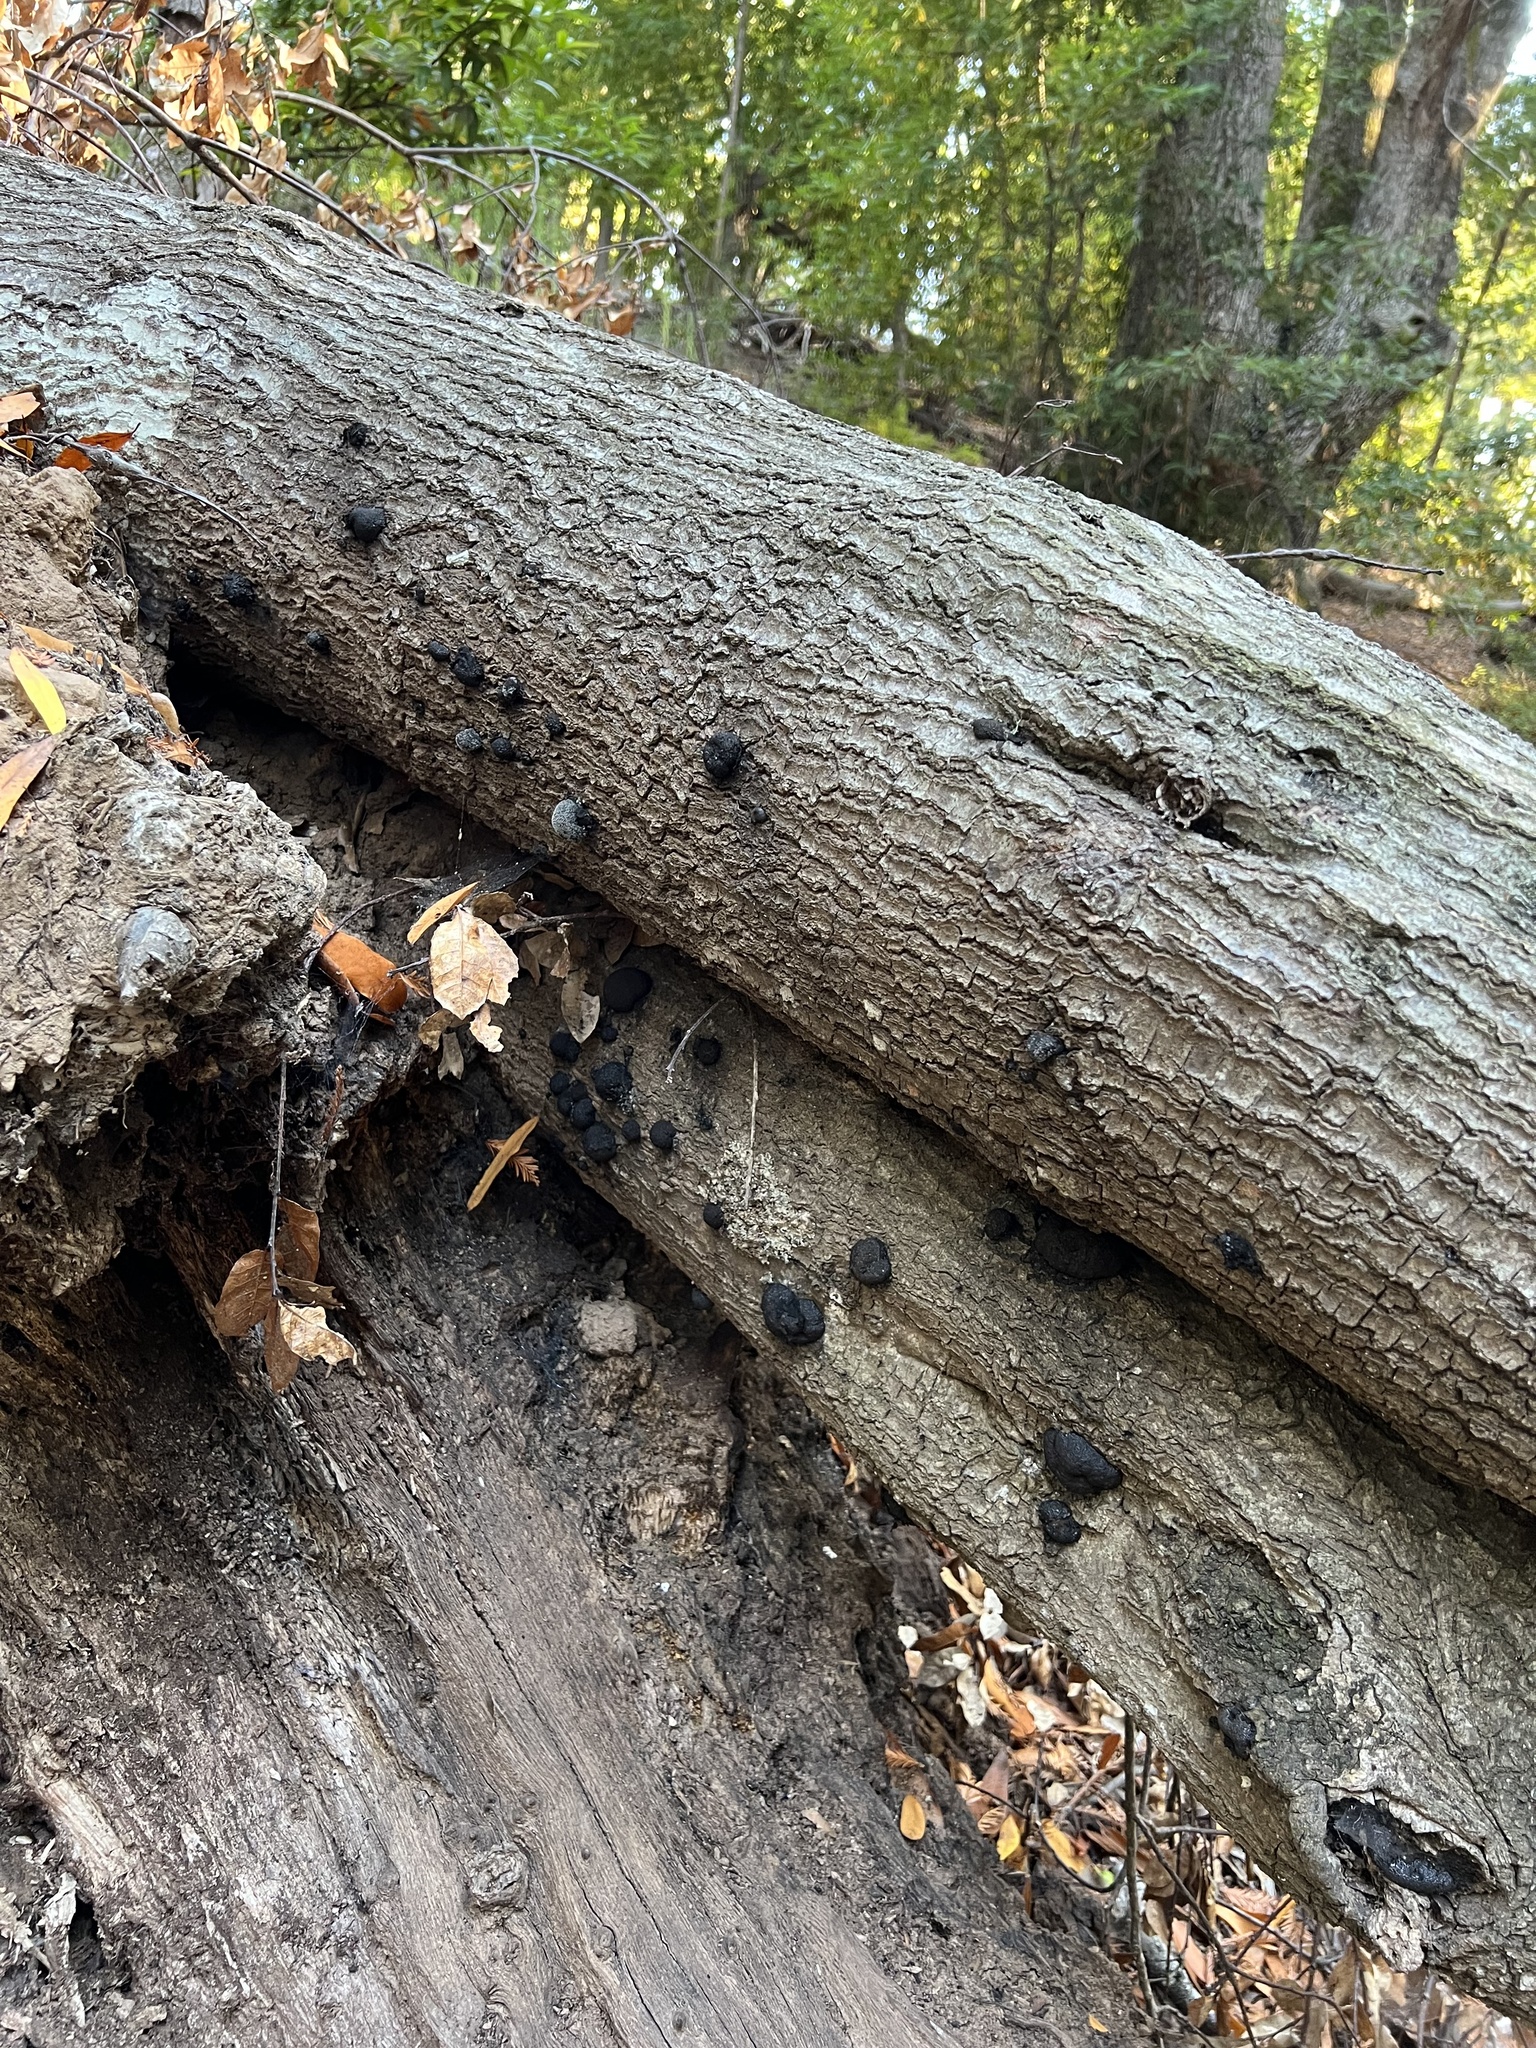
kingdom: Fungi
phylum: Ascomycota
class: Sordariomycetes
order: Xylariales
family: Hypoxylaceae
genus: Annulohypoxylon
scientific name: Annulohypoxylon thouarsianum
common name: Cramp balls
